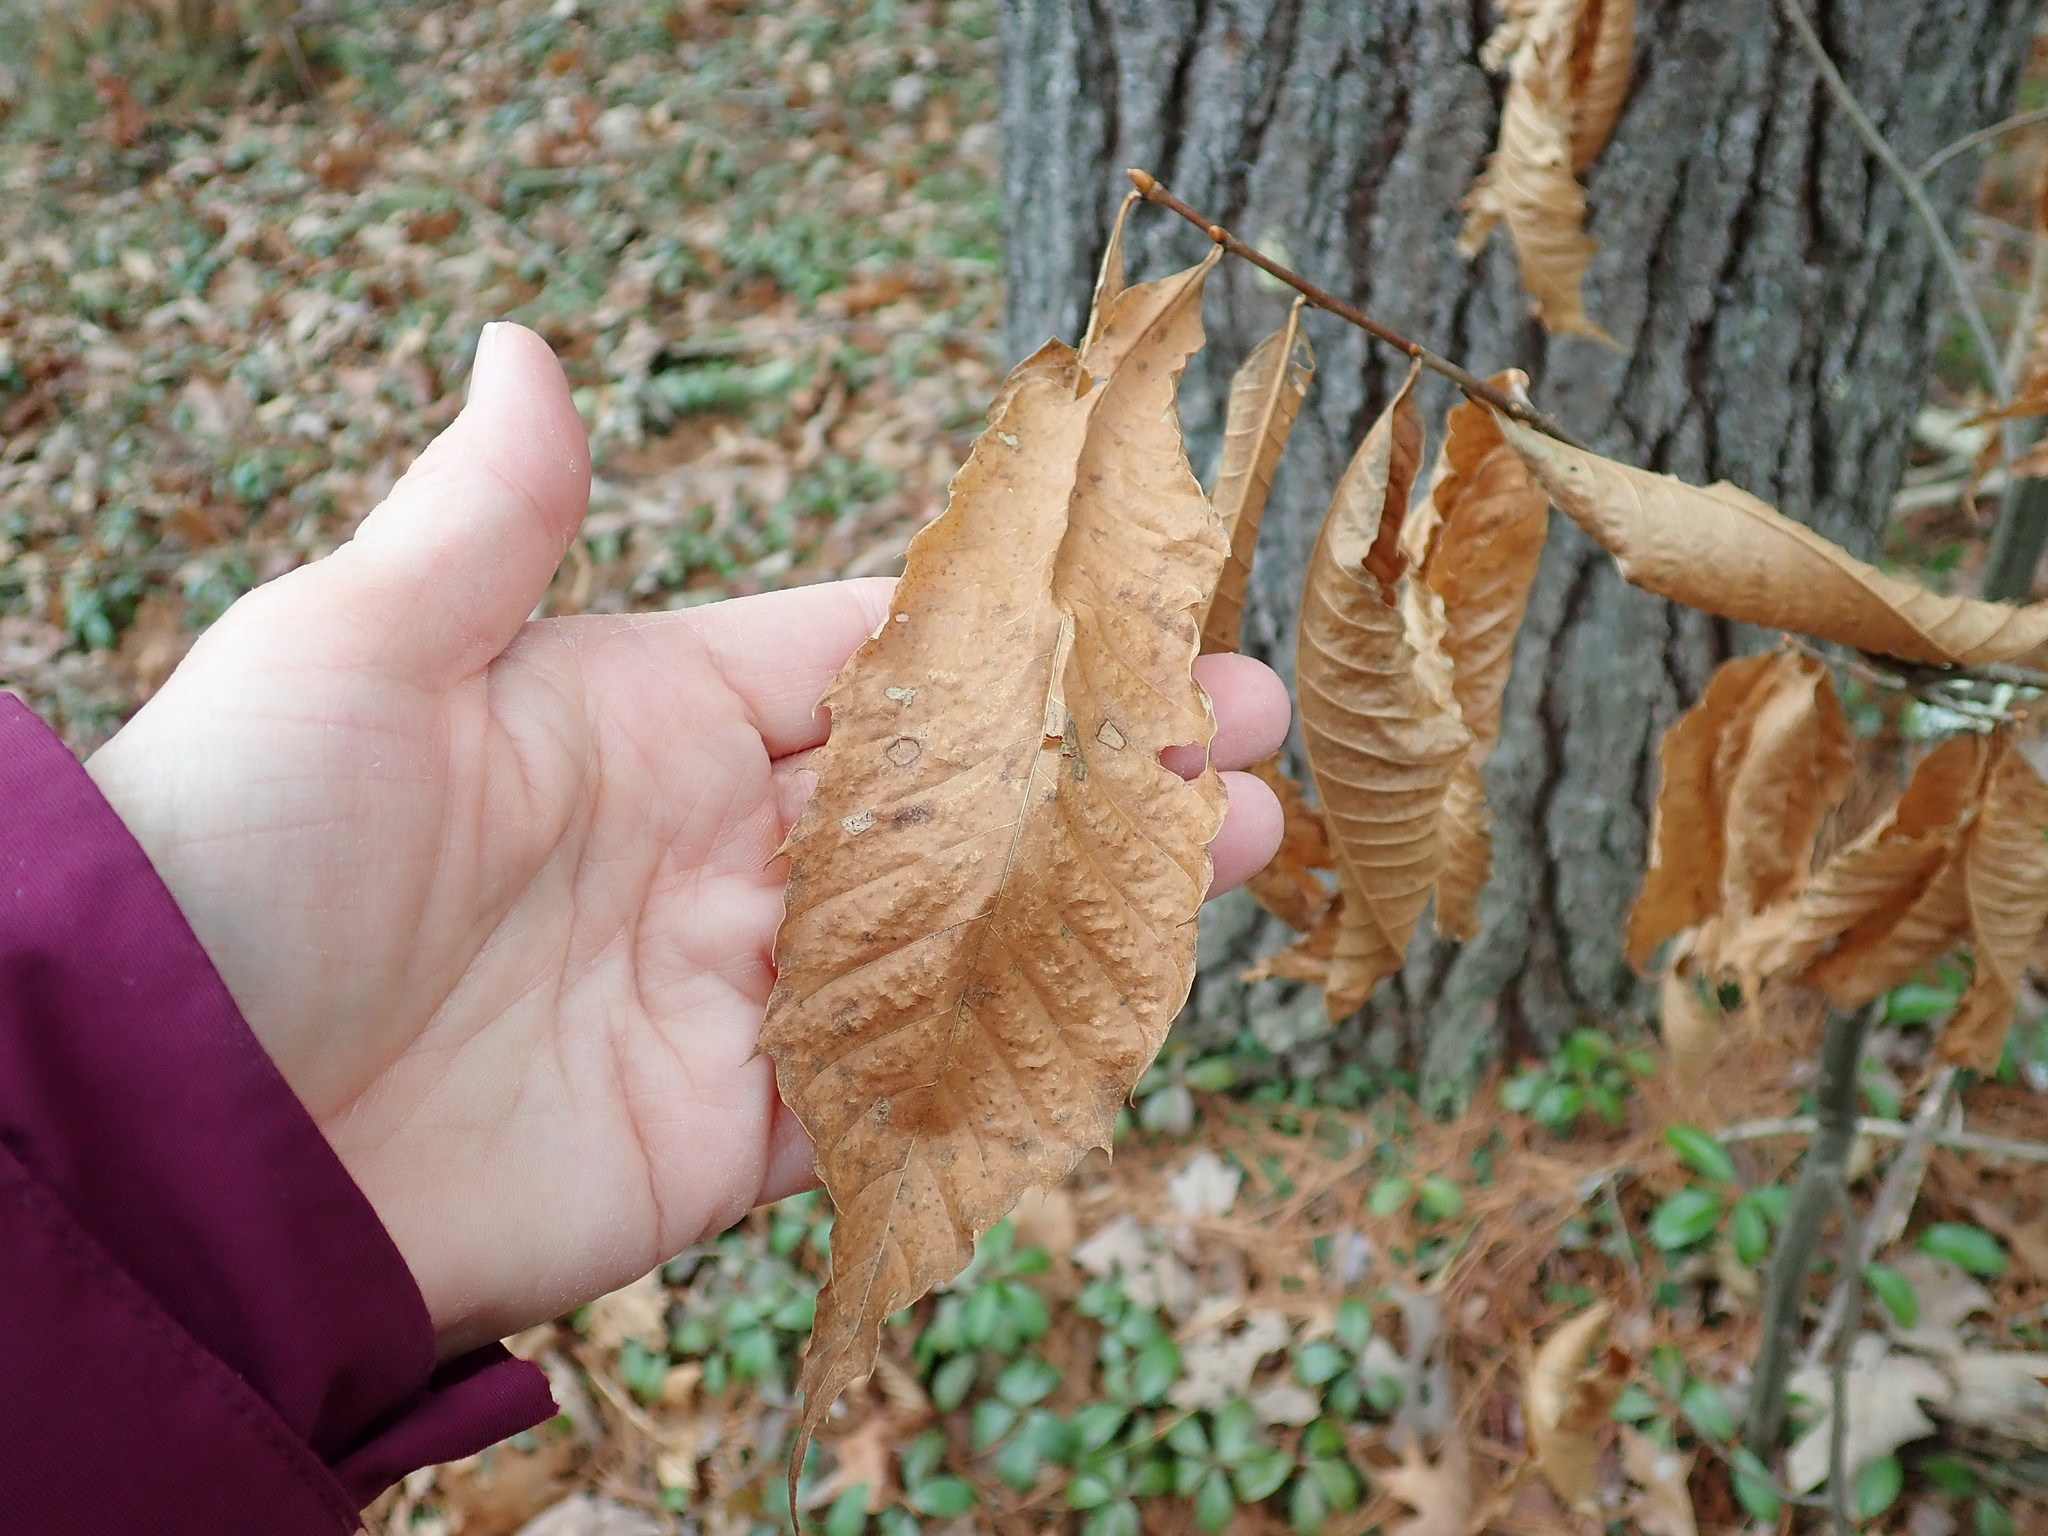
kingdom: Plantae
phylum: Tracheophyta
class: Magnoliopsida
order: Fagales
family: Fagaceae
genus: Castanea
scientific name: Castanea dentata
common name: American chestnut
